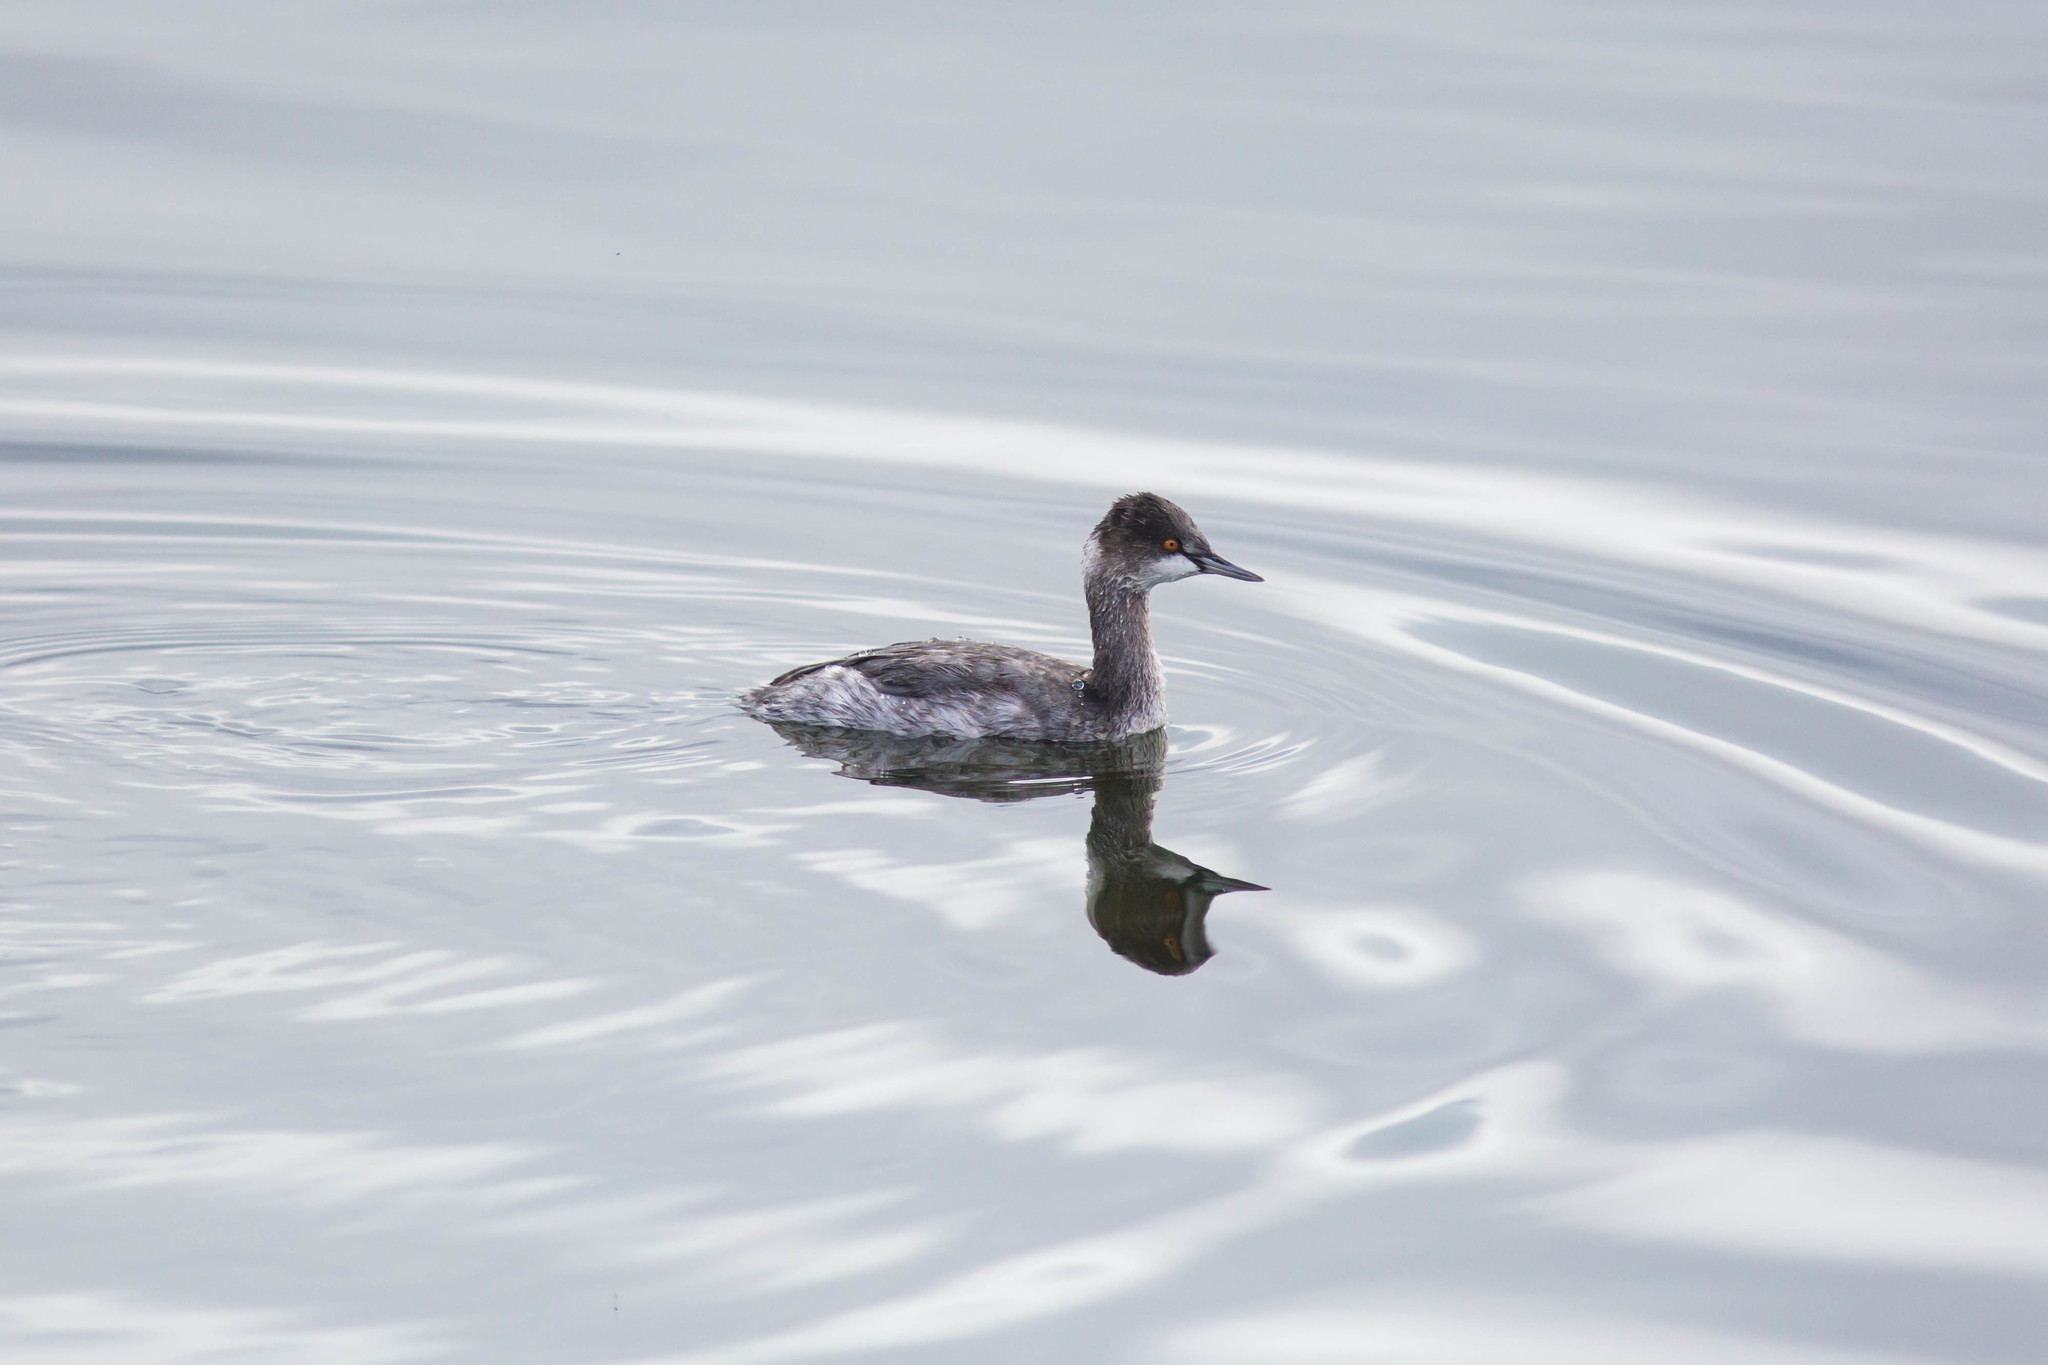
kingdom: Animalia
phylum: Chordata
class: Aves
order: Podicipediformes
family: Podicipedidae
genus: Podiceps
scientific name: Podiceps nigricollis
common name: Black-necked grebe
